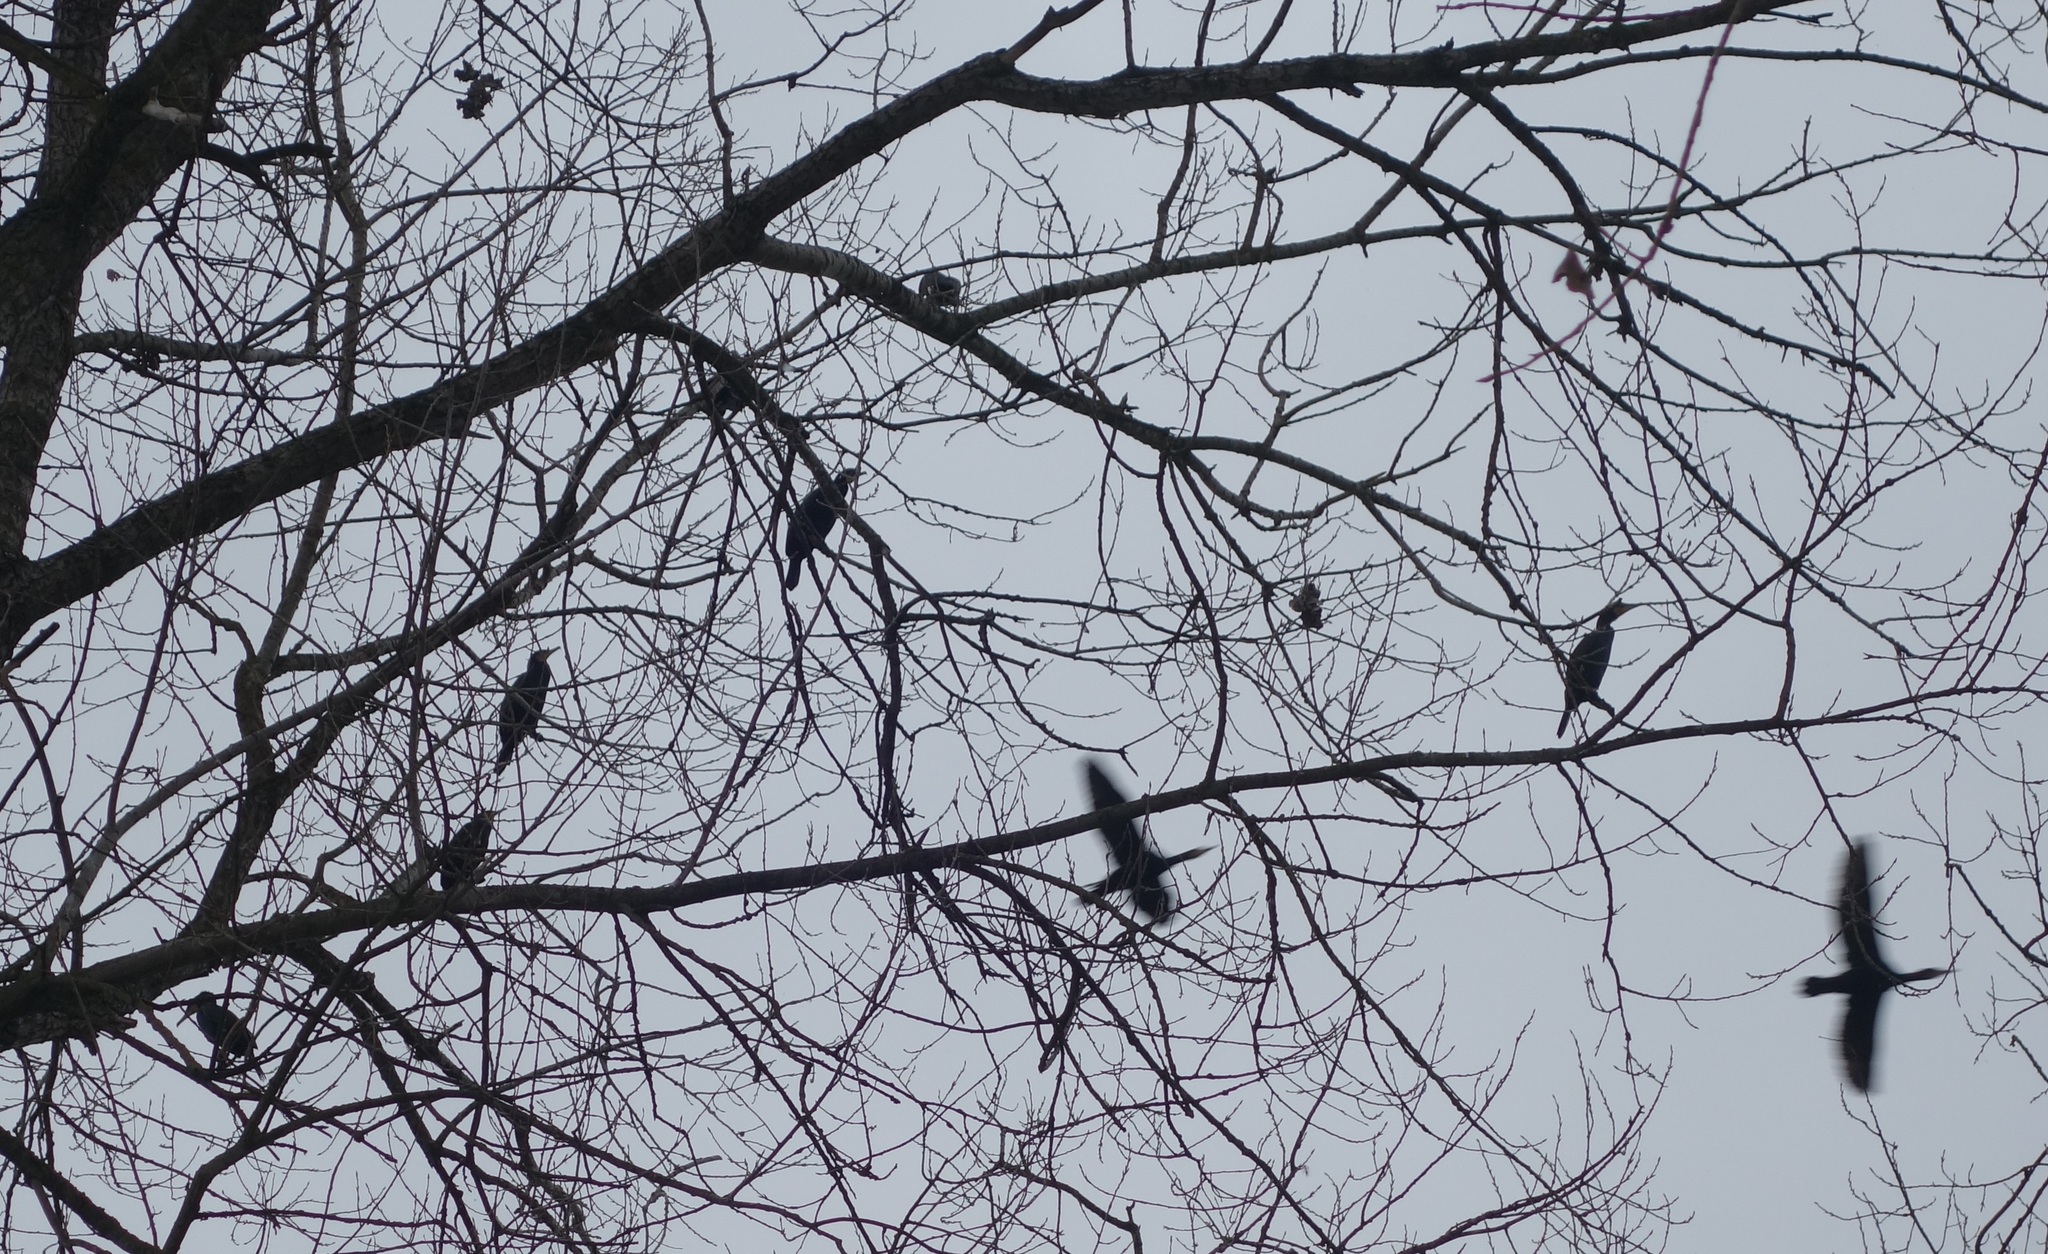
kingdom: Animalia
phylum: Chordata
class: Aves
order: Suliformes
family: Phalacrocoracidae
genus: Phalacrocorax
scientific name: Phalacrocorax carbo
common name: Great cormorant
